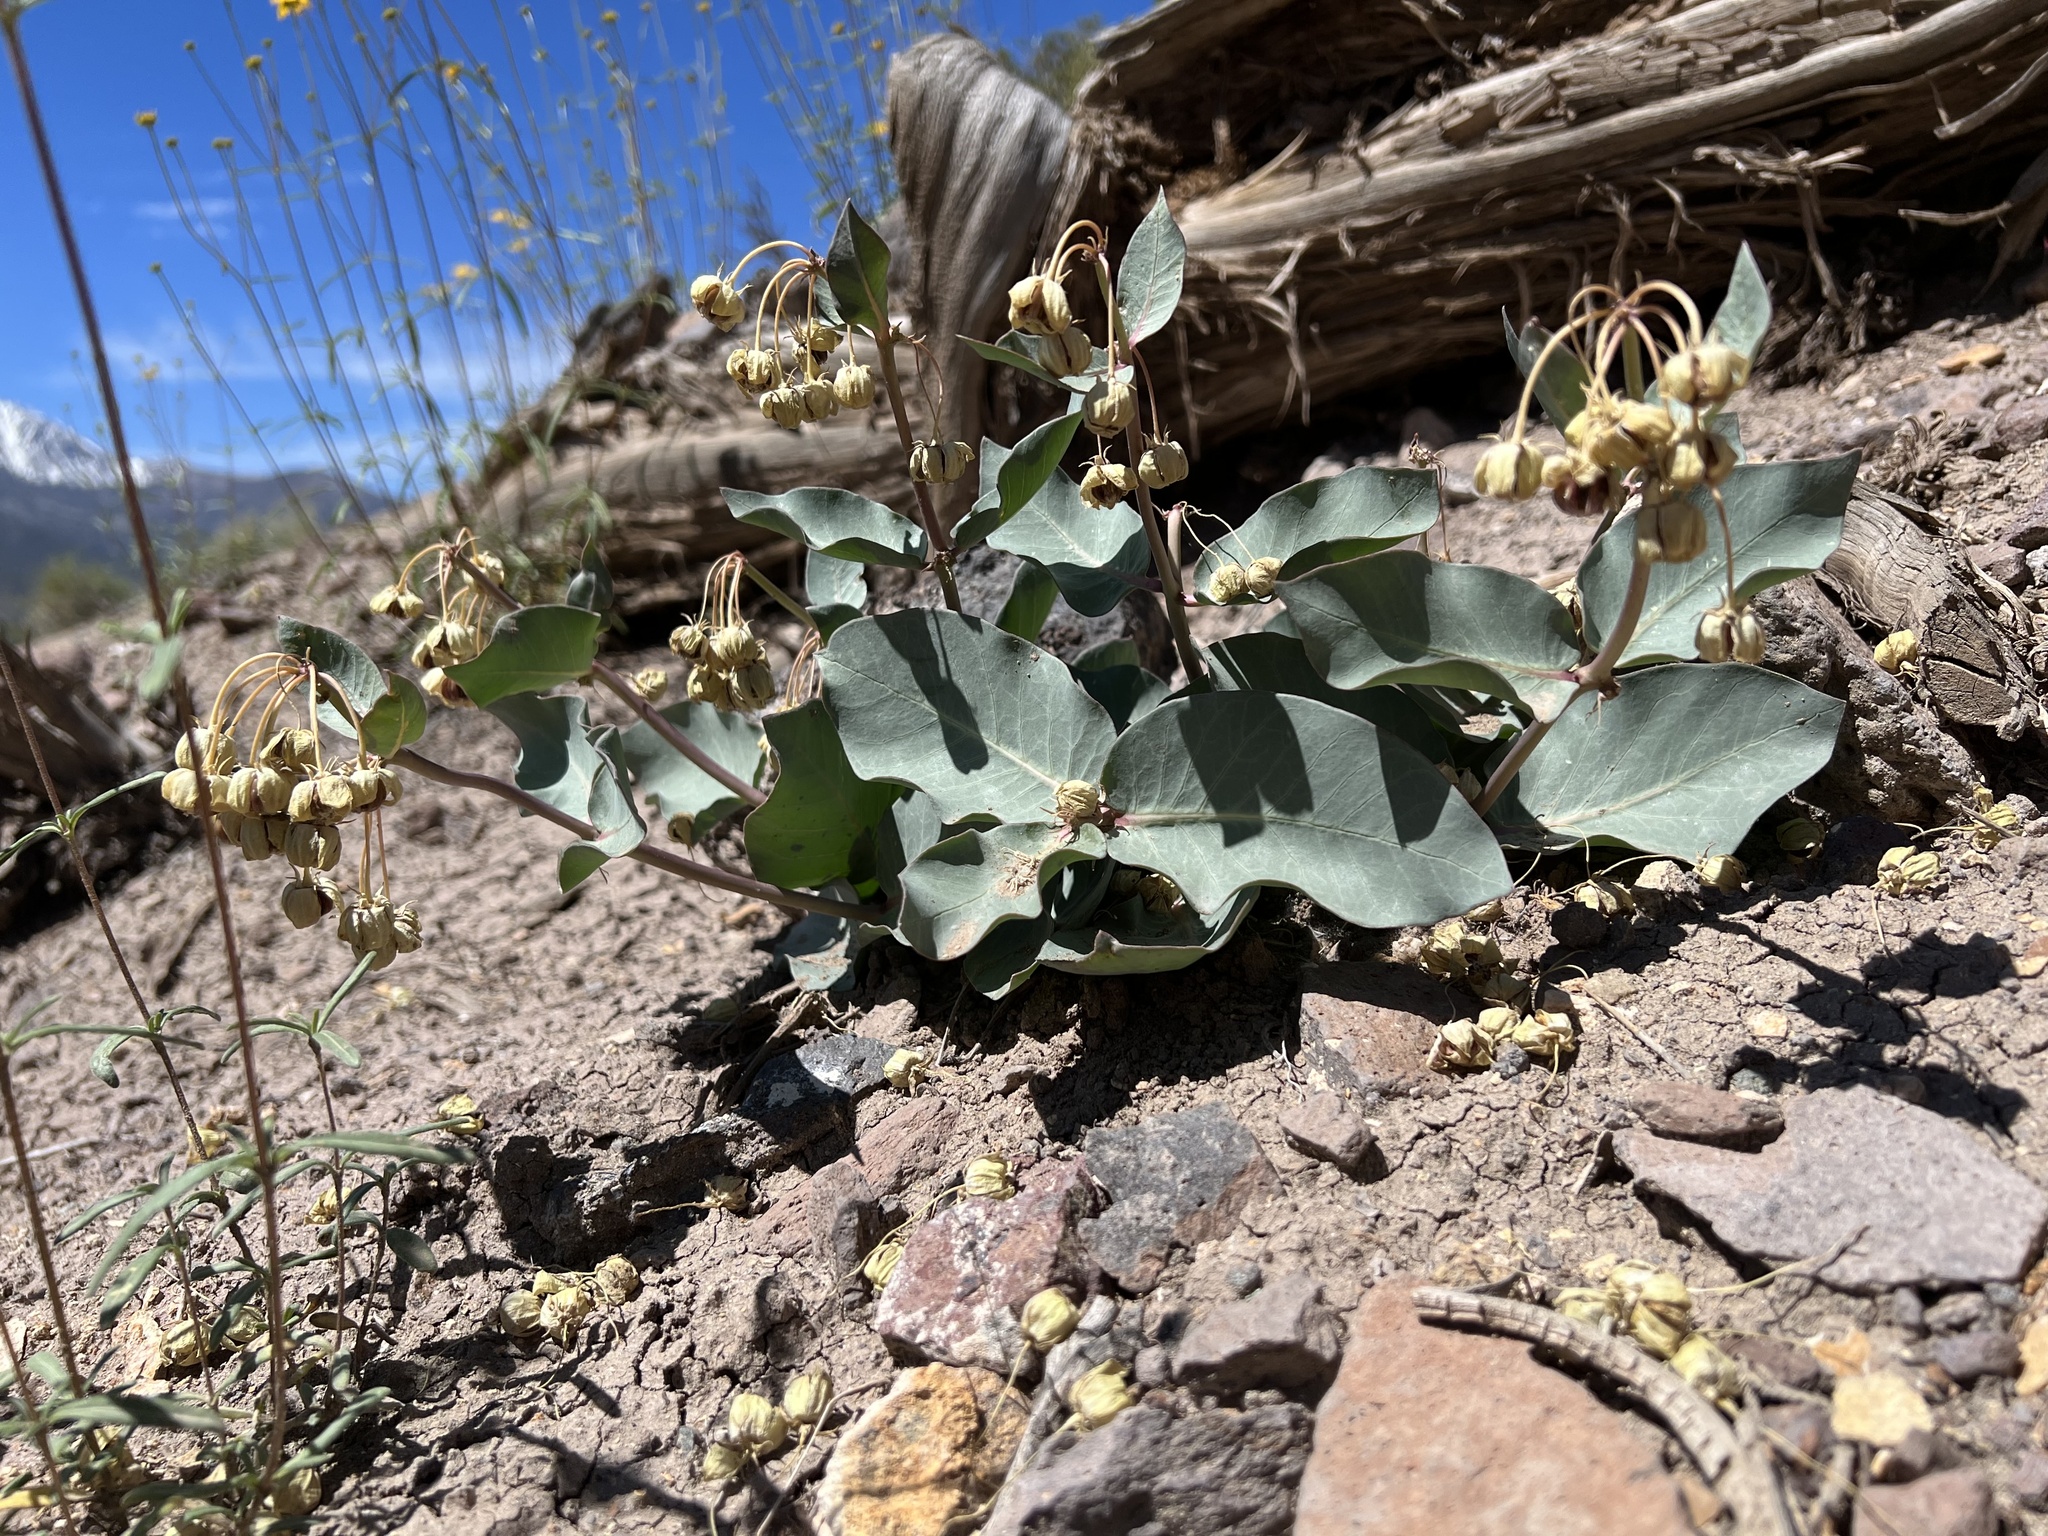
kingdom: Plantae
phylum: Tracheophyta
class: Magnoliopsida
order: Gentianales
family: Apocynaceae
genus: Asclepias
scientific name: Asclepias cryptoceras
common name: Humboldt mountains milkweed
